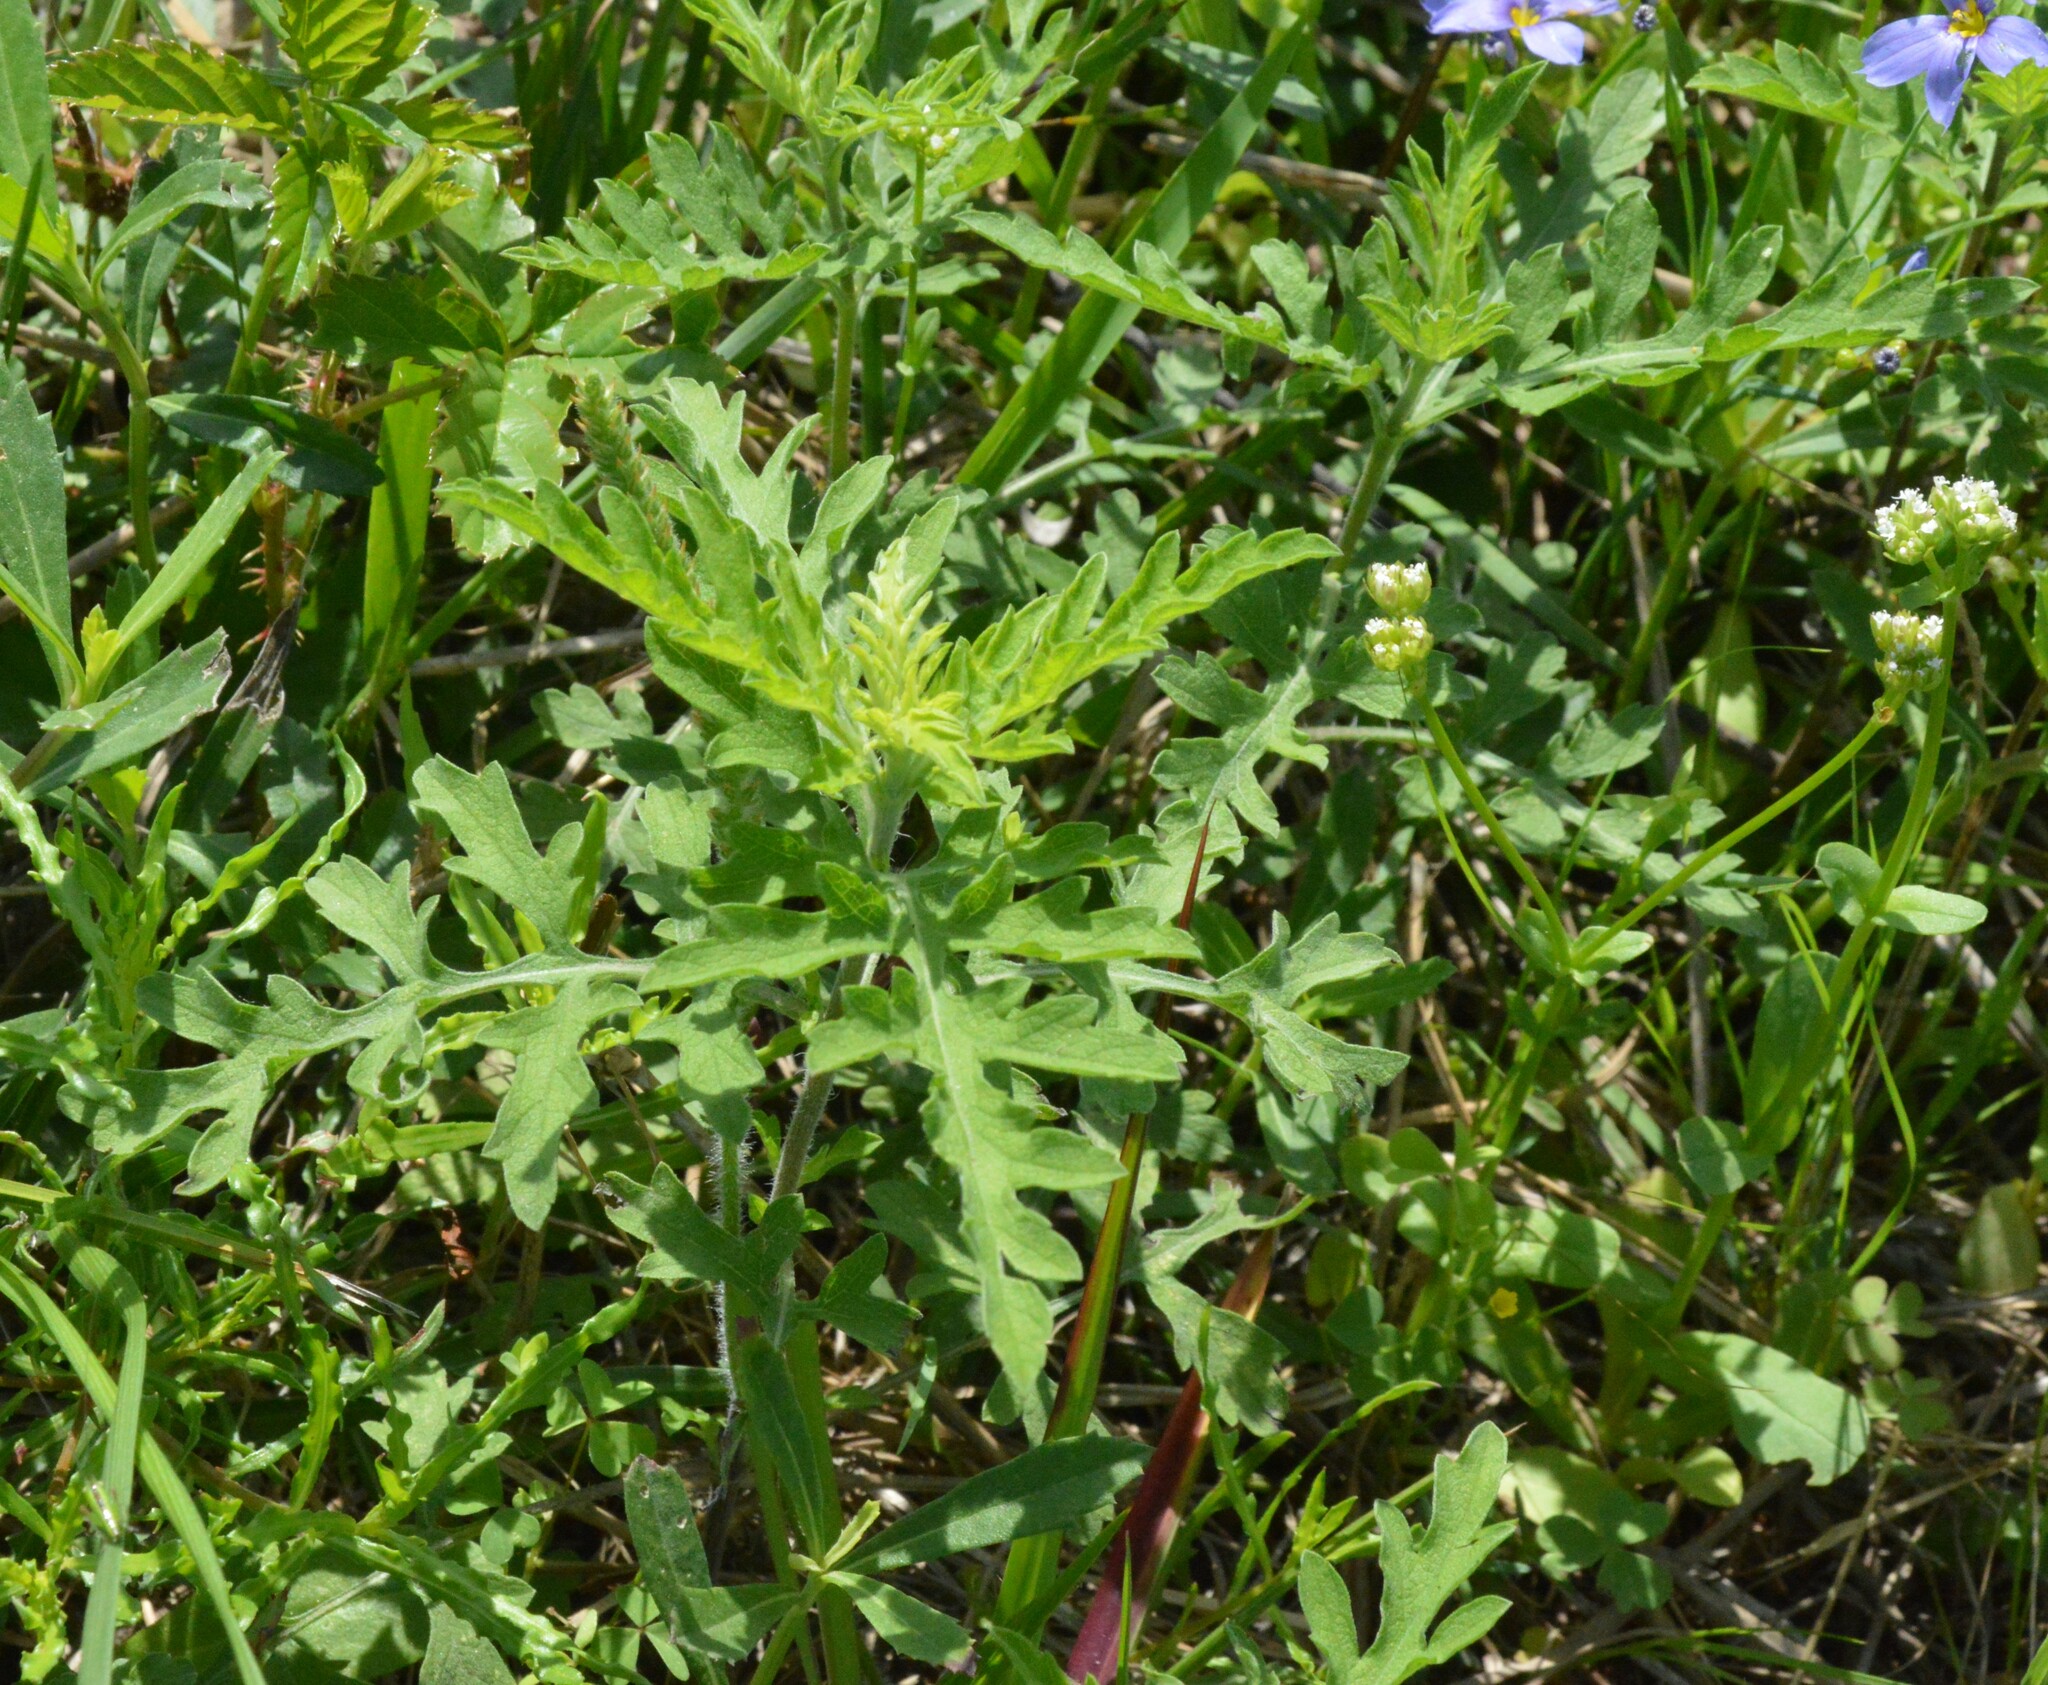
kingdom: Plantae
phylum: Tracheophyta
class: Magnoliopsida
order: Asterales
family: Asteraceae
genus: Ambrosia
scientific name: Ambrosia psilostachya
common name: Perennial ragweed
